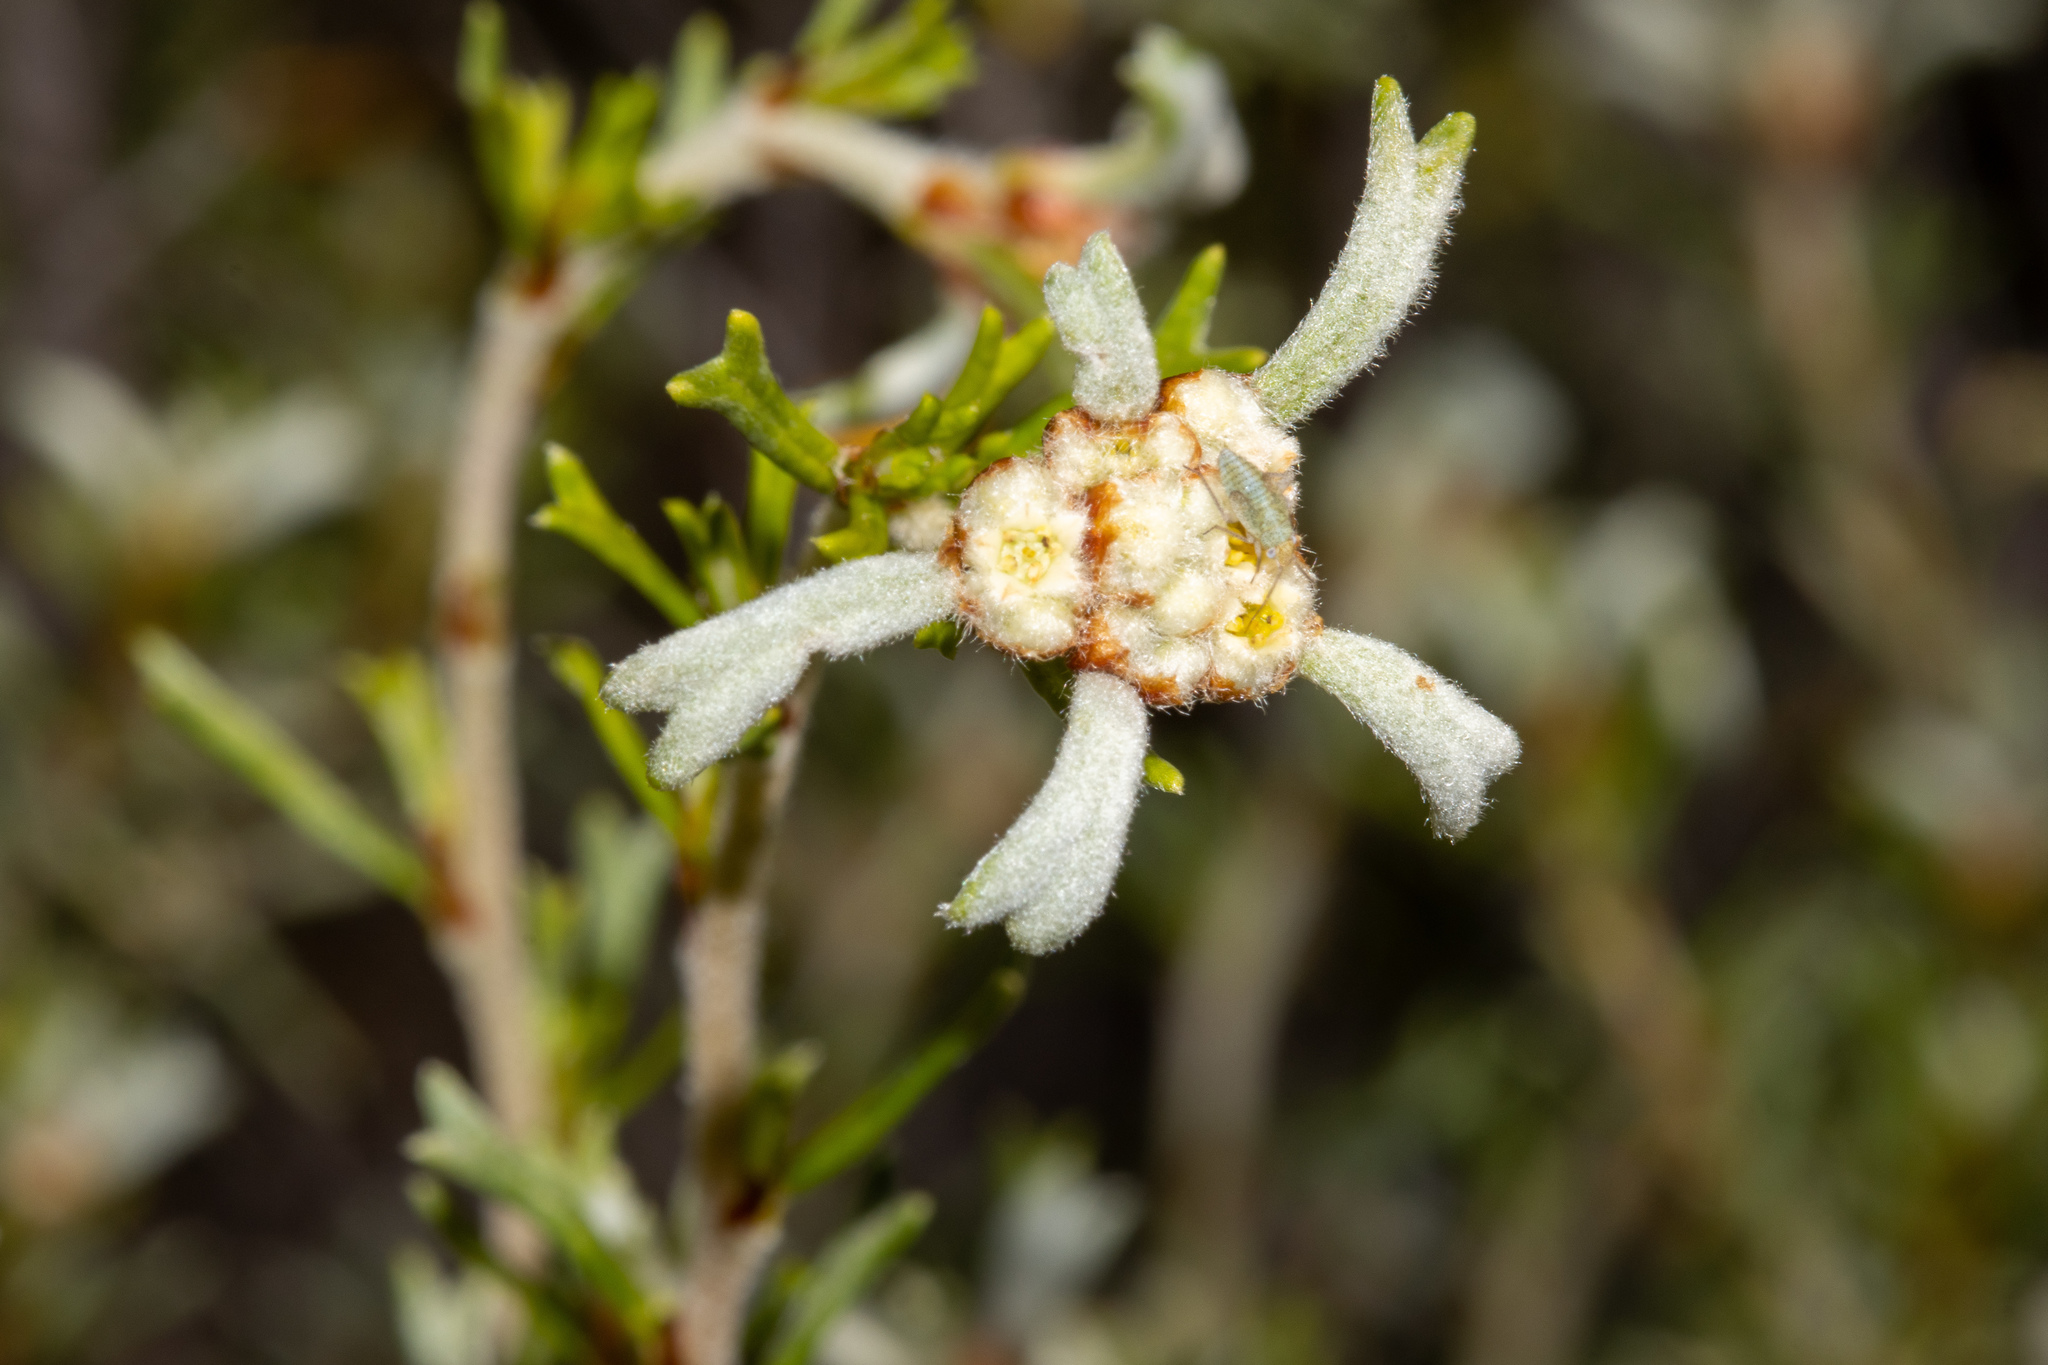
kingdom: Plantae
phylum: Tracheophyta
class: Magnoliopsida
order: Rosales
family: Rhamnaceae
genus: Spyridium
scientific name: Spyridium stenophyllum
